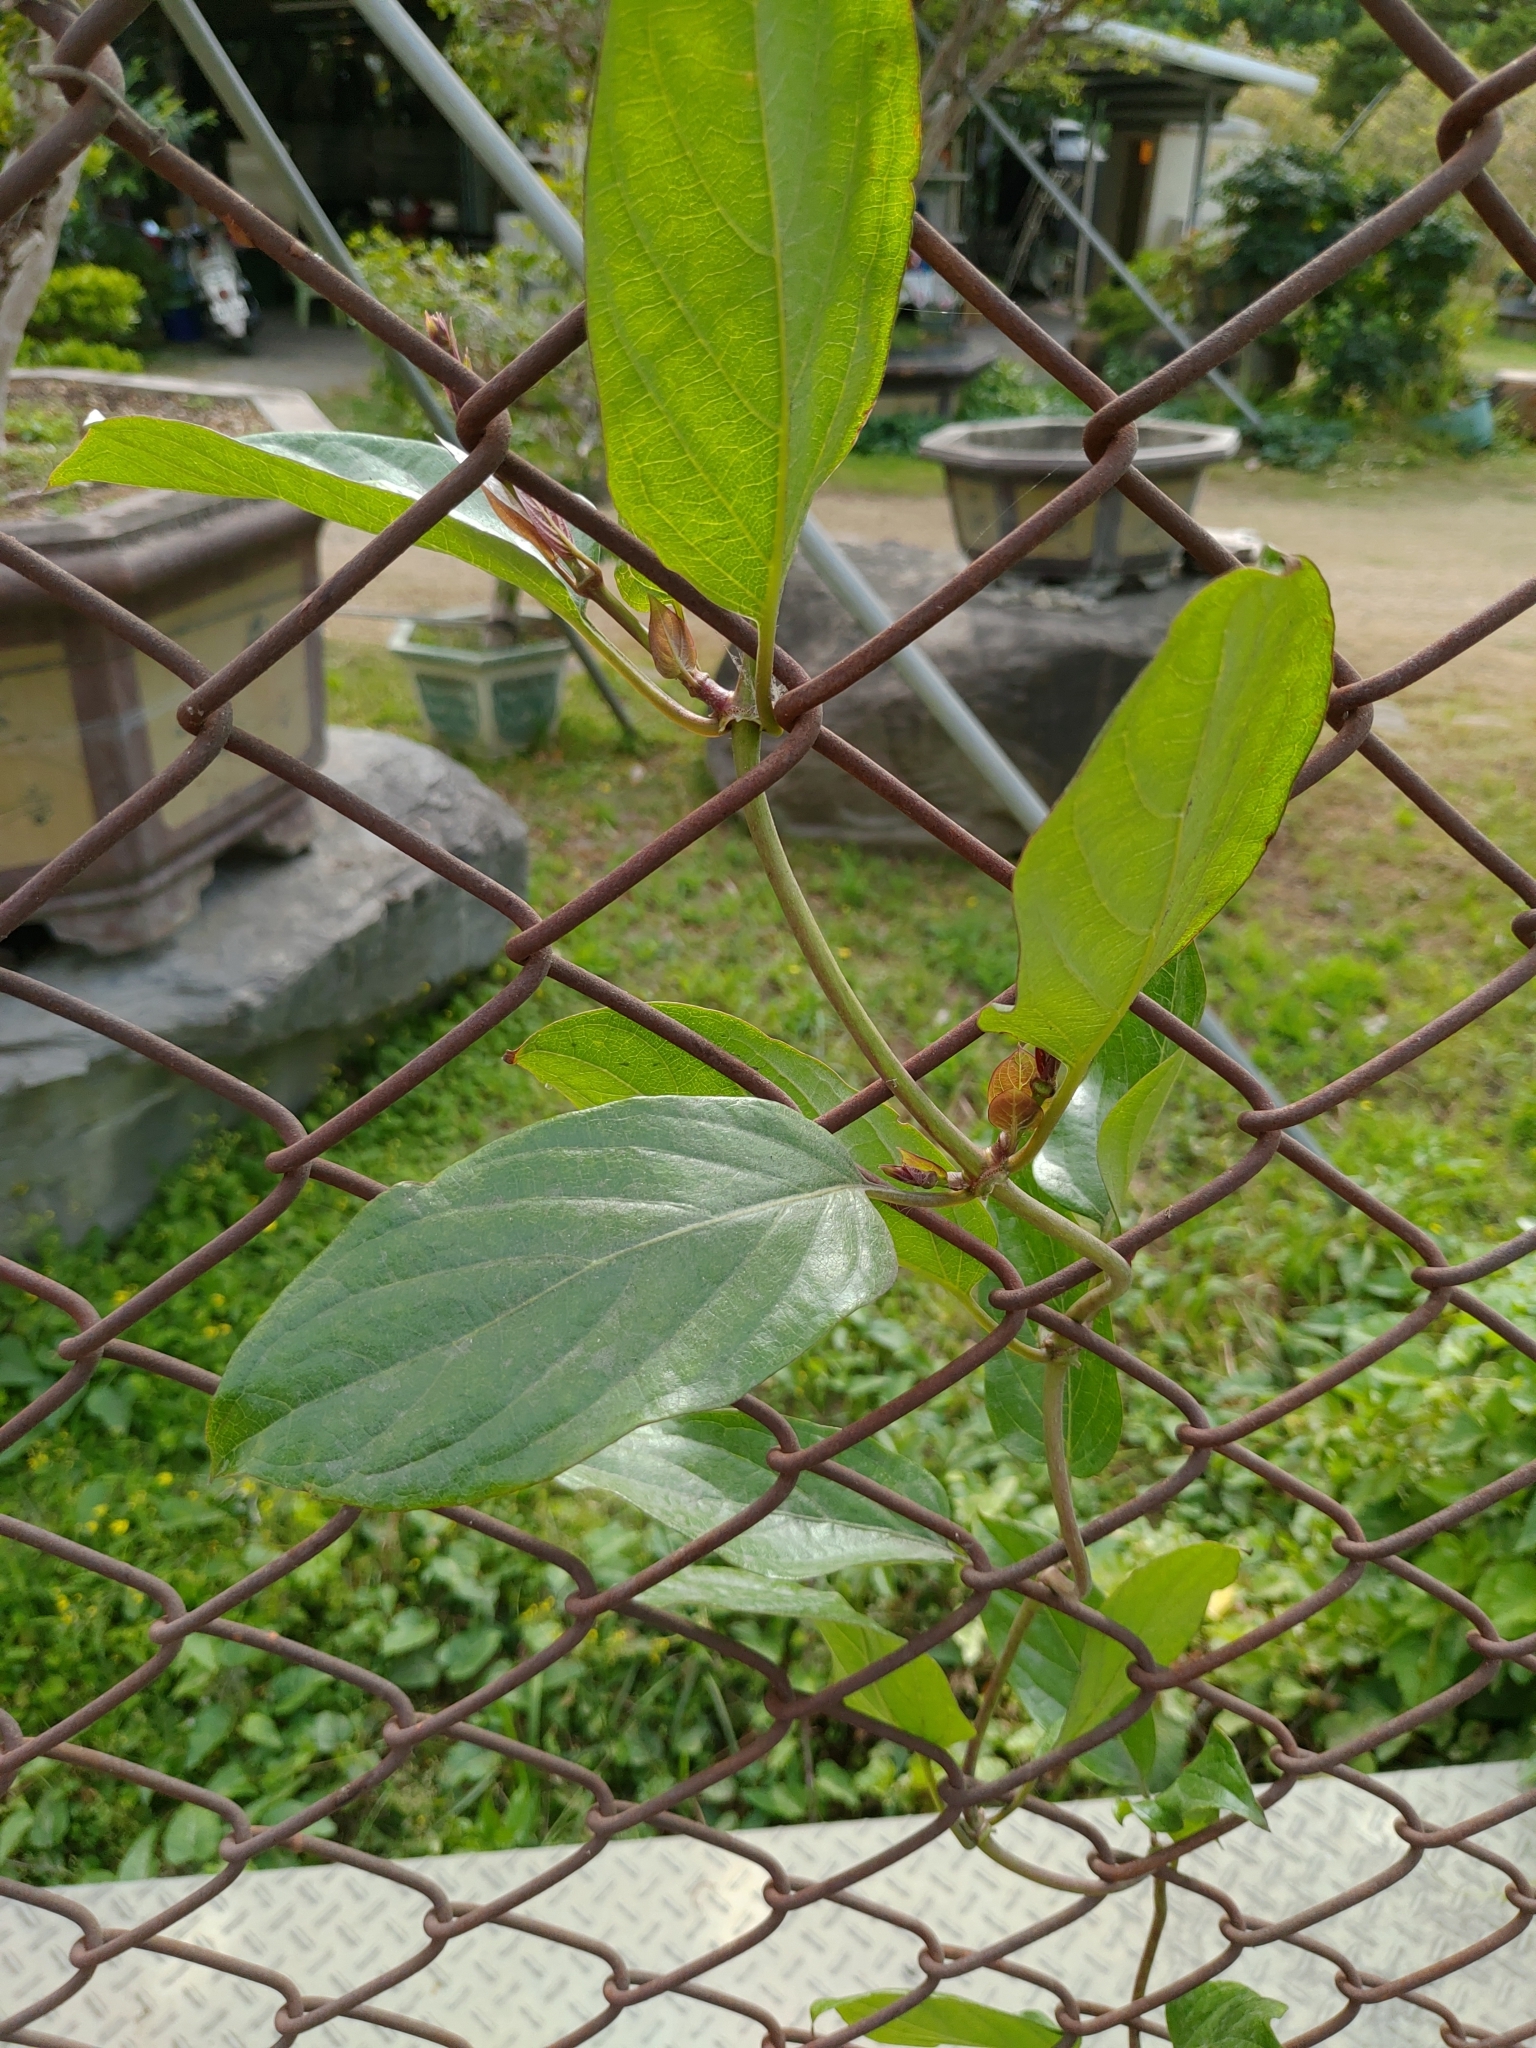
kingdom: Plantae
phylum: Tracheophyta
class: Magnoliopsida
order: Gentianales
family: Rubiaceae
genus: Paederia
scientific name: Paederia foetida
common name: Stinkvine
